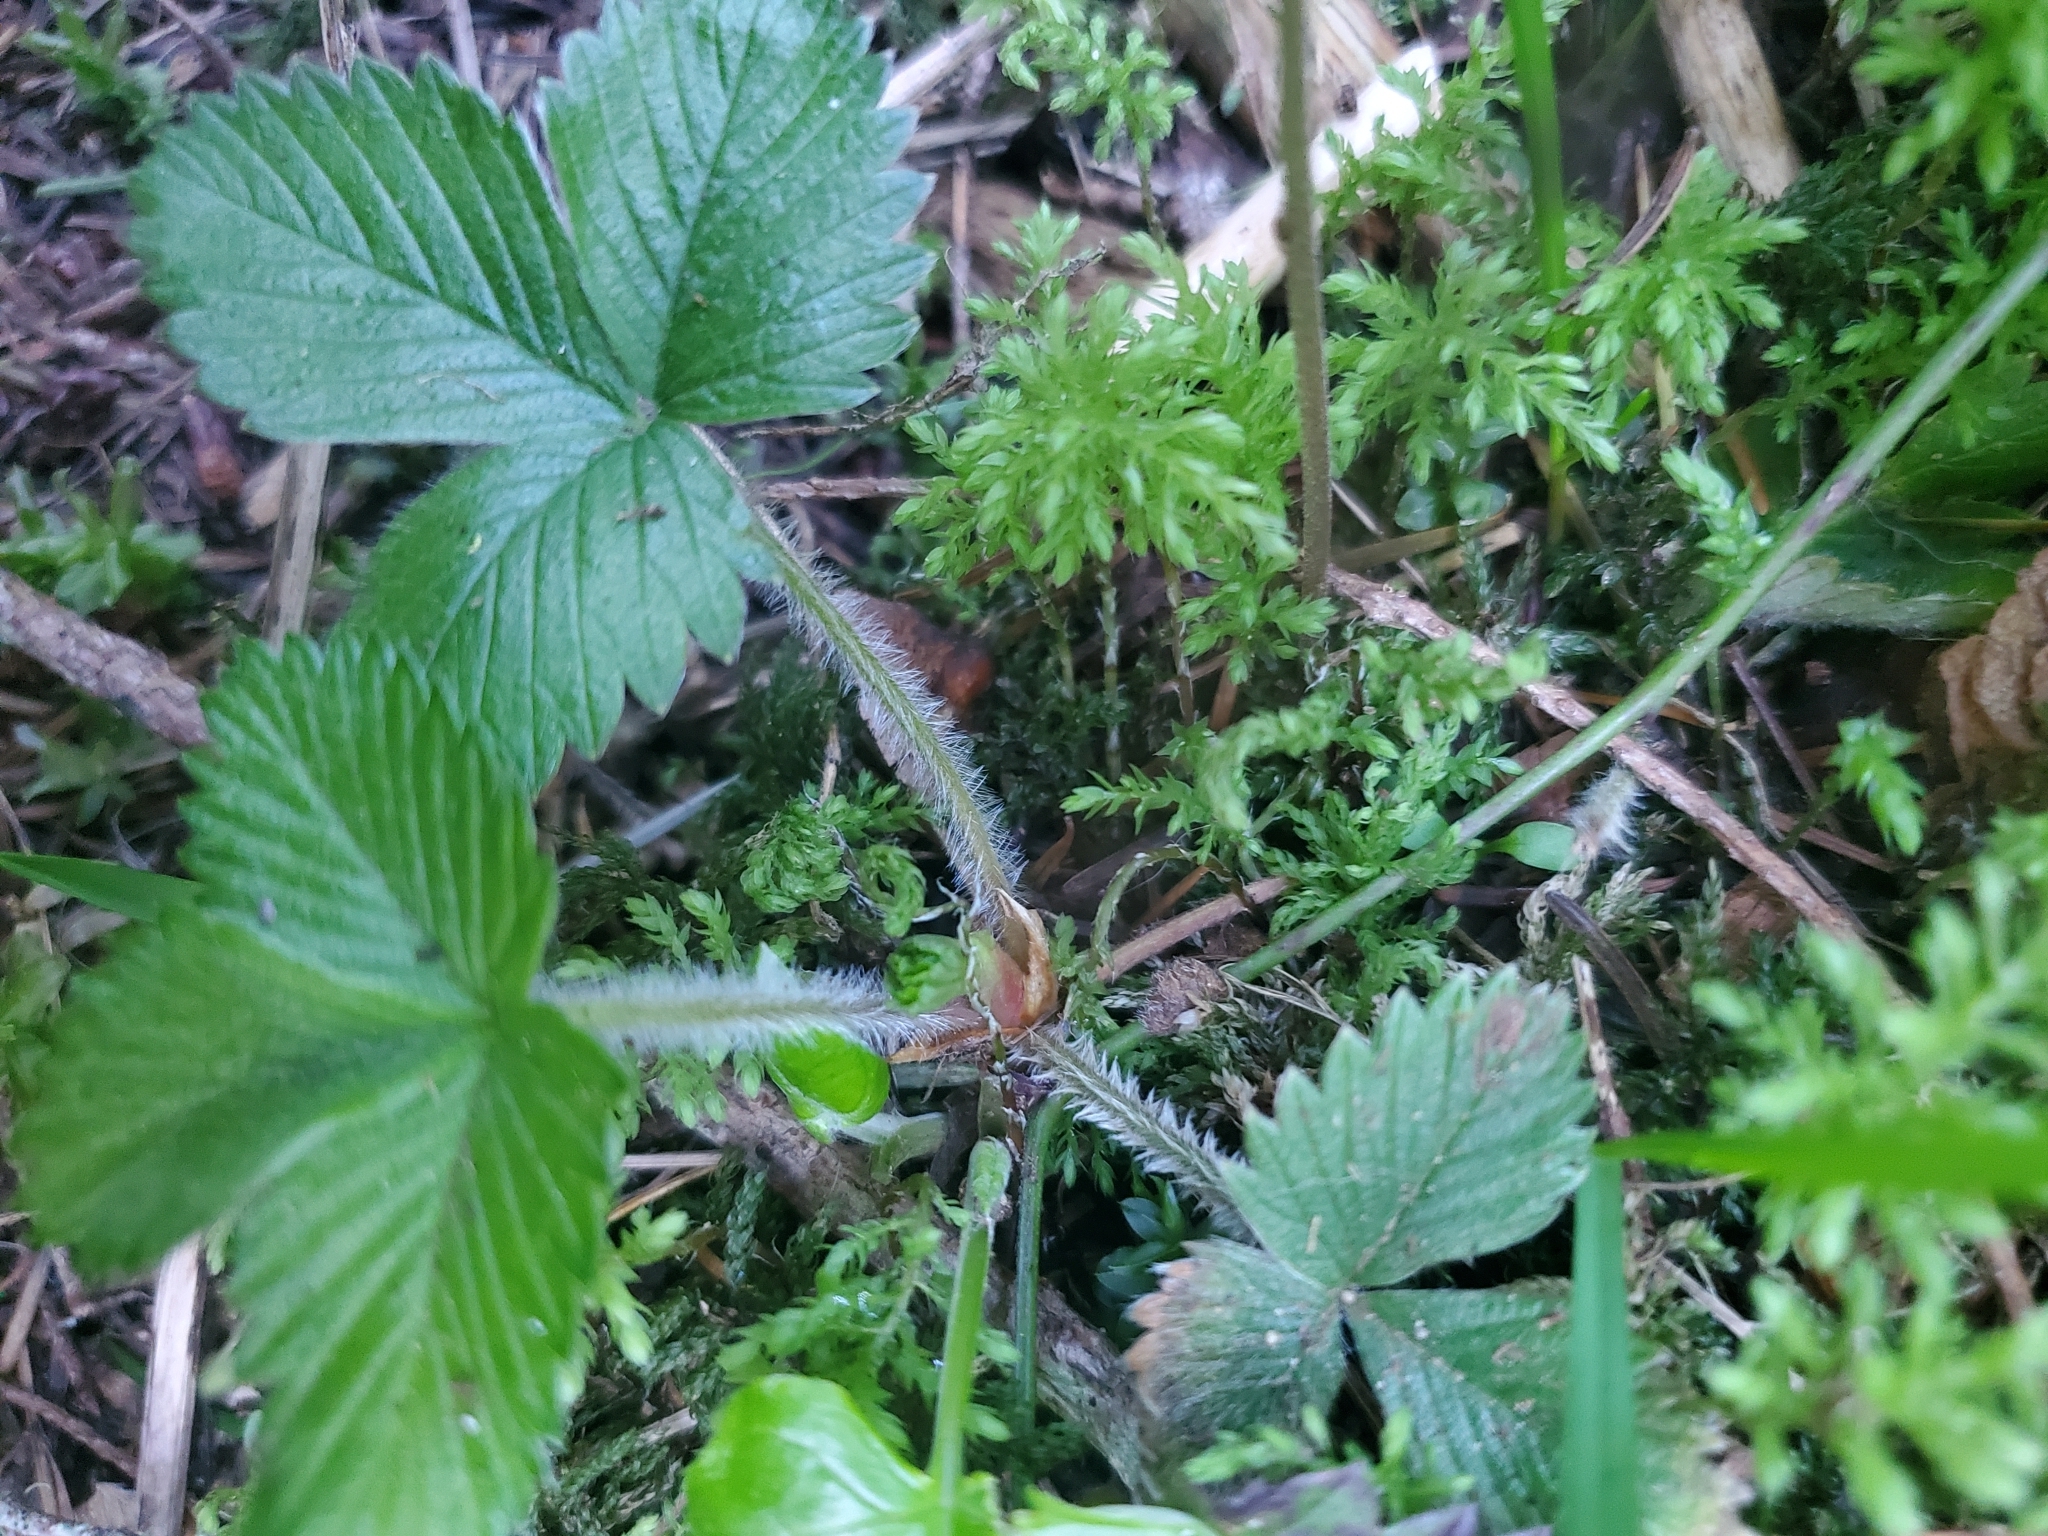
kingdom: Plantae
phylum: Tracheophyta
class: Magnoliopsida
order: Rosales
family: Rosaceae
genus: Fragaria
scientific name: Fragaria vesca
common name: Wild strawberry
